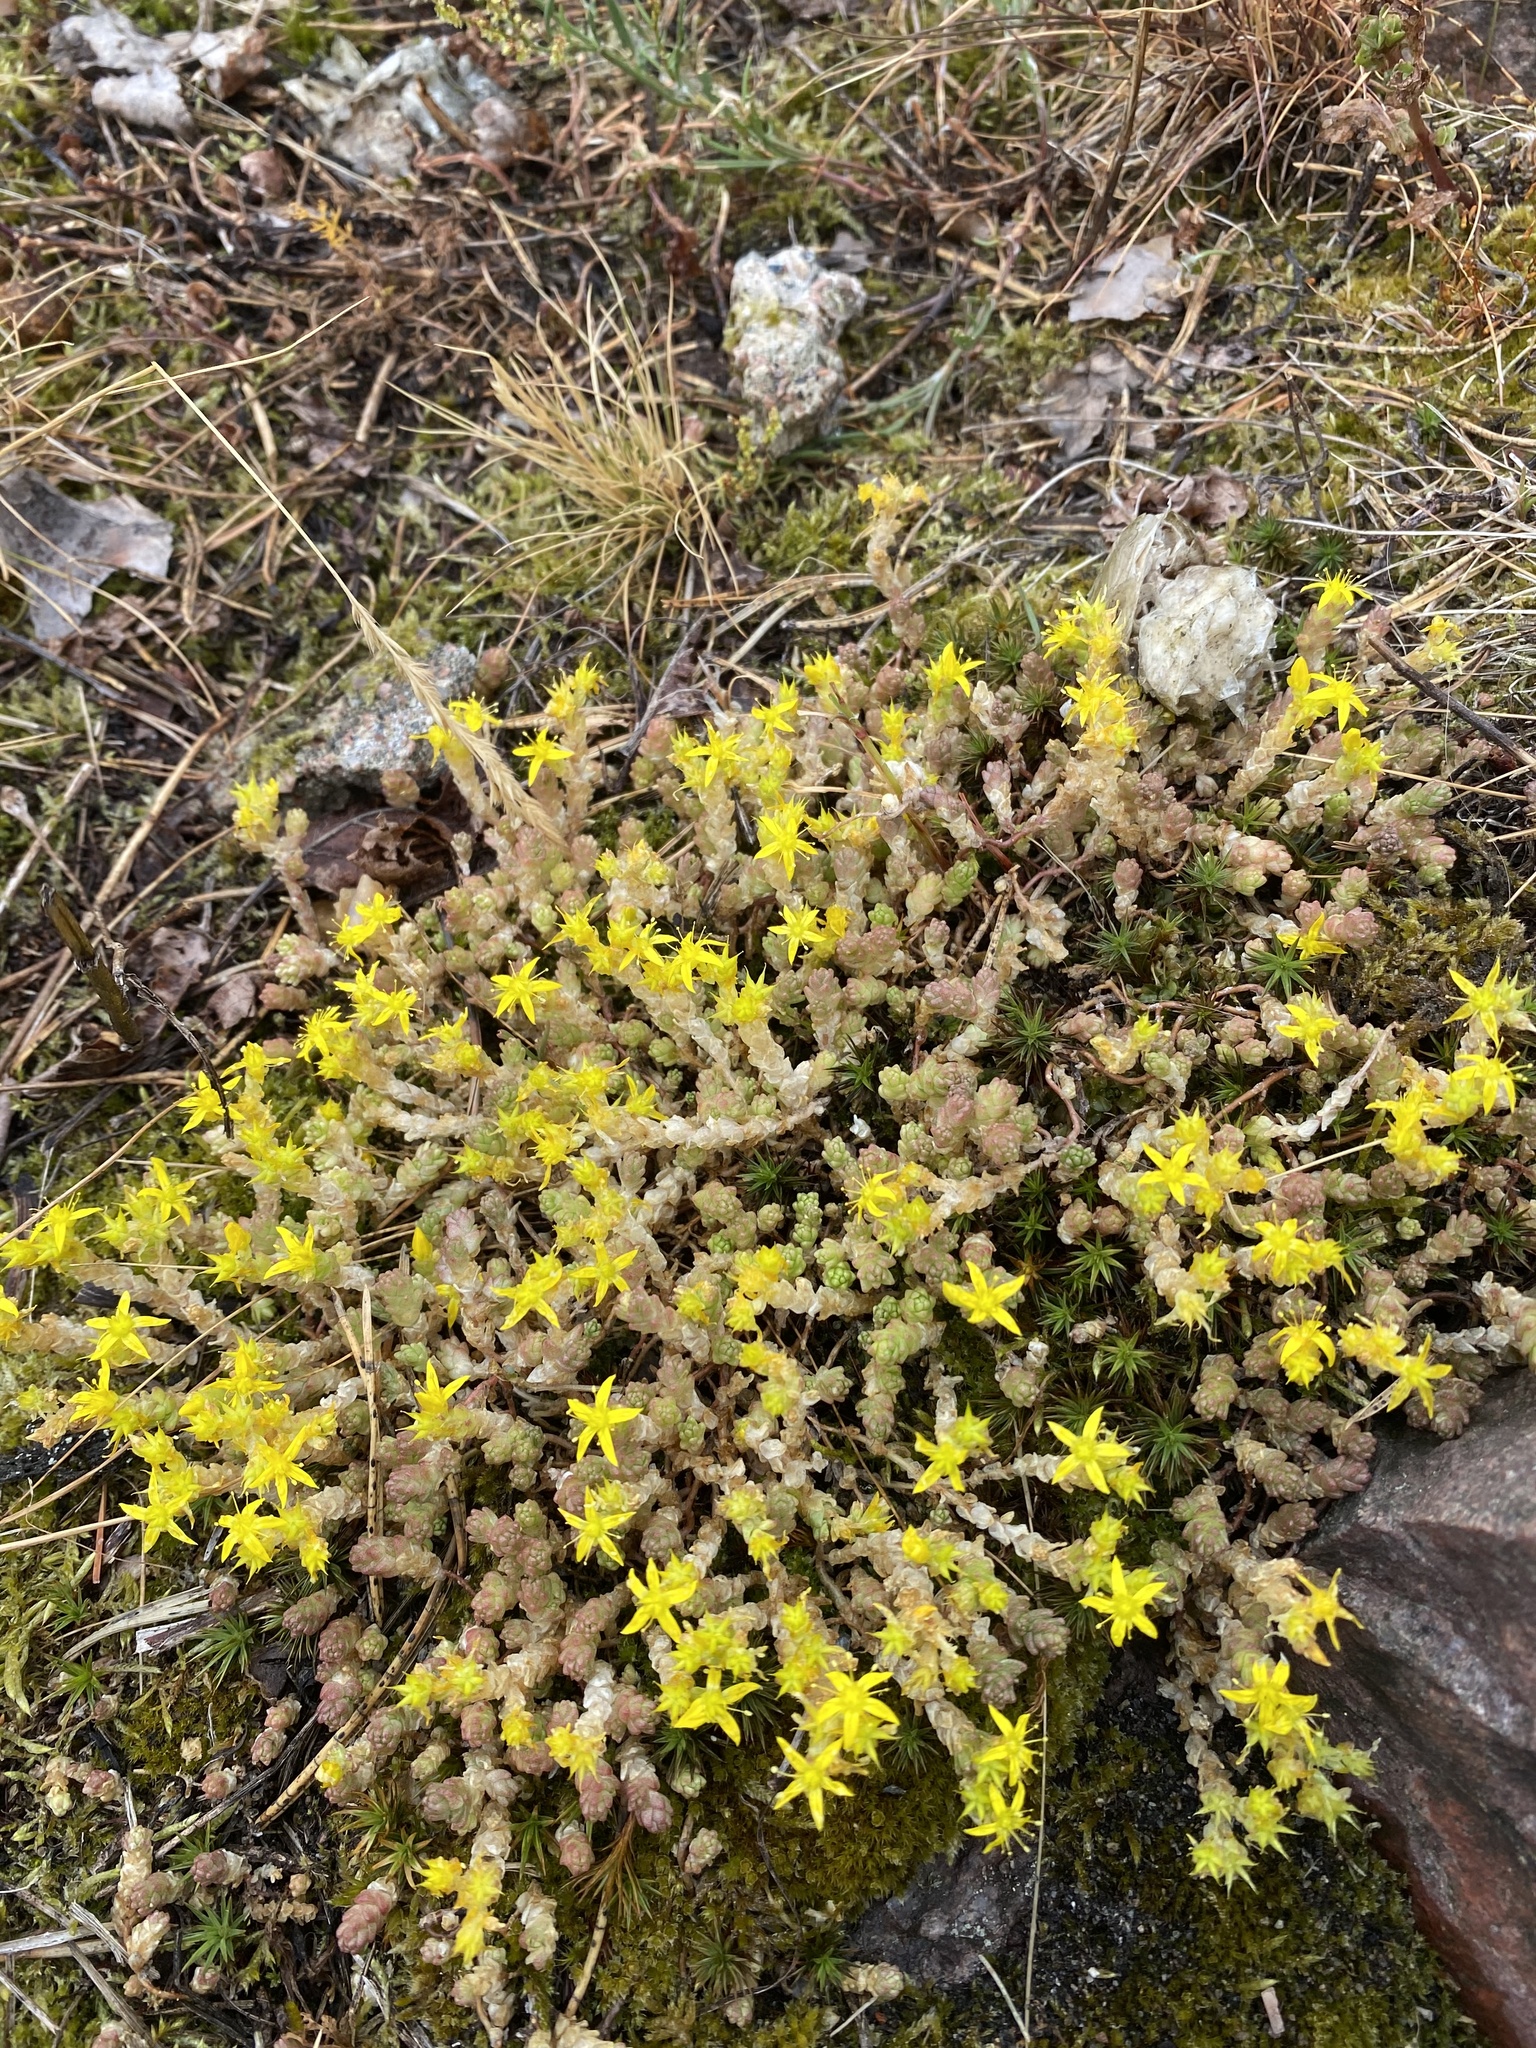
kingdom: Plantae
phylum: Tracheophyta
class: Magnoliopsida
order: Saxifragales
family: Crassulaceae
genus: Sedum
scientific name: Sedum acre
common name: Biting stonecrop
